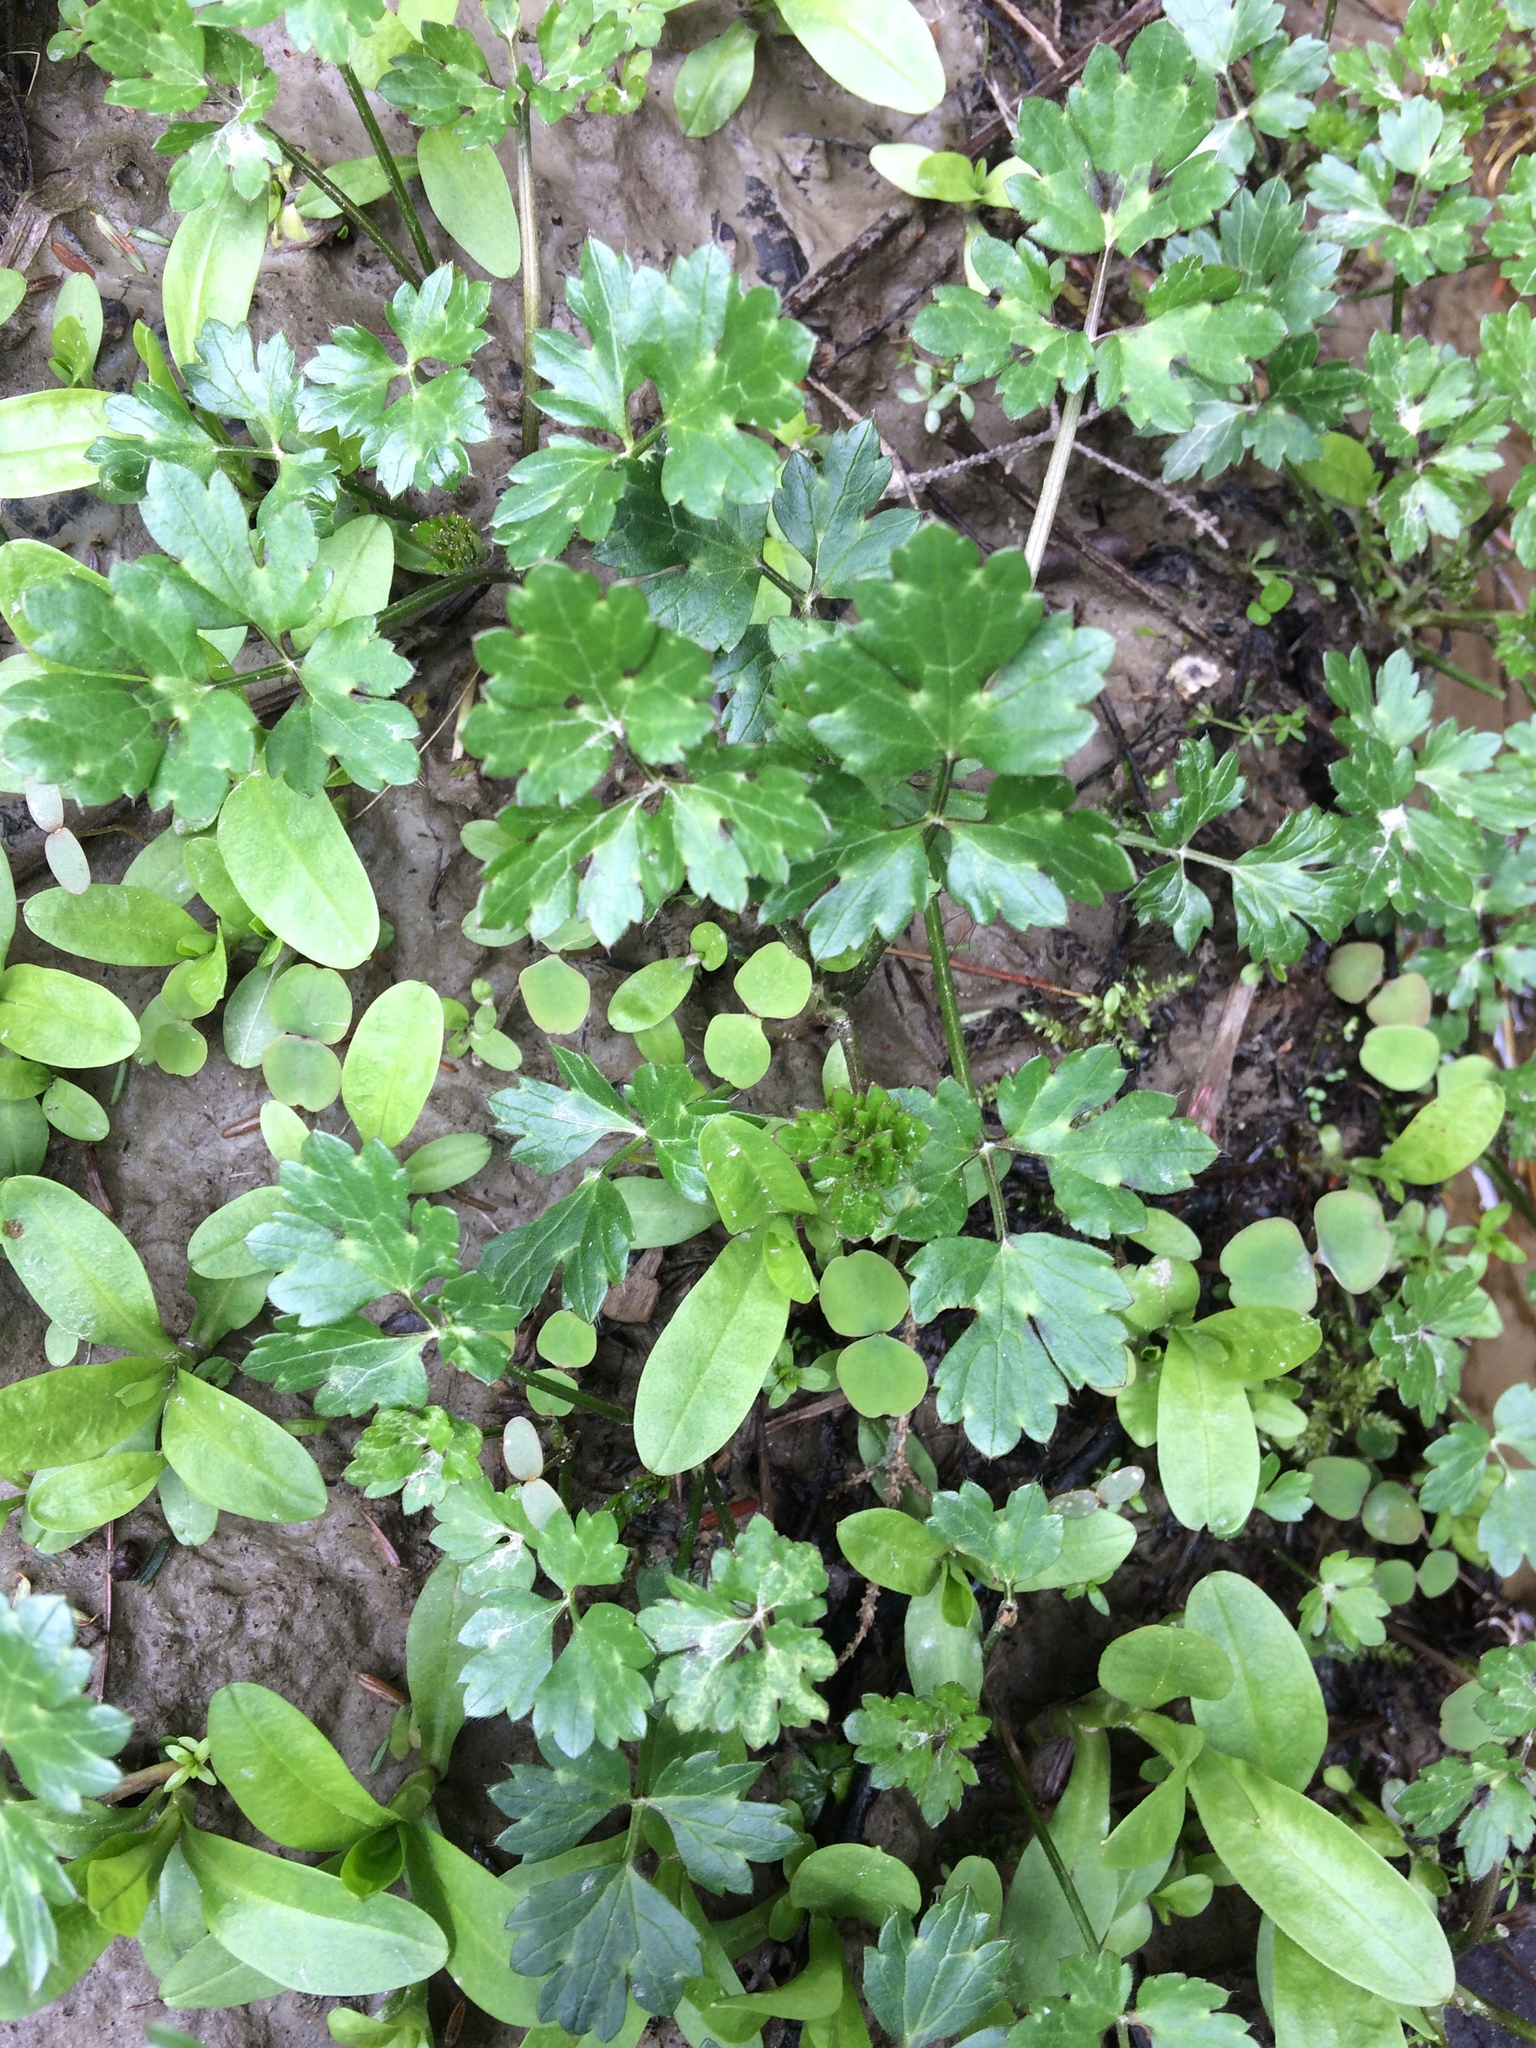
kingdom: Plantae
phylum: Tracheophyta
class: Magnoliopsida
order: Ranunculales
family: Ranunculaceae
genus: Ranunculus
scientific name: Ranunculus repens
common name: Creeping buttercup
